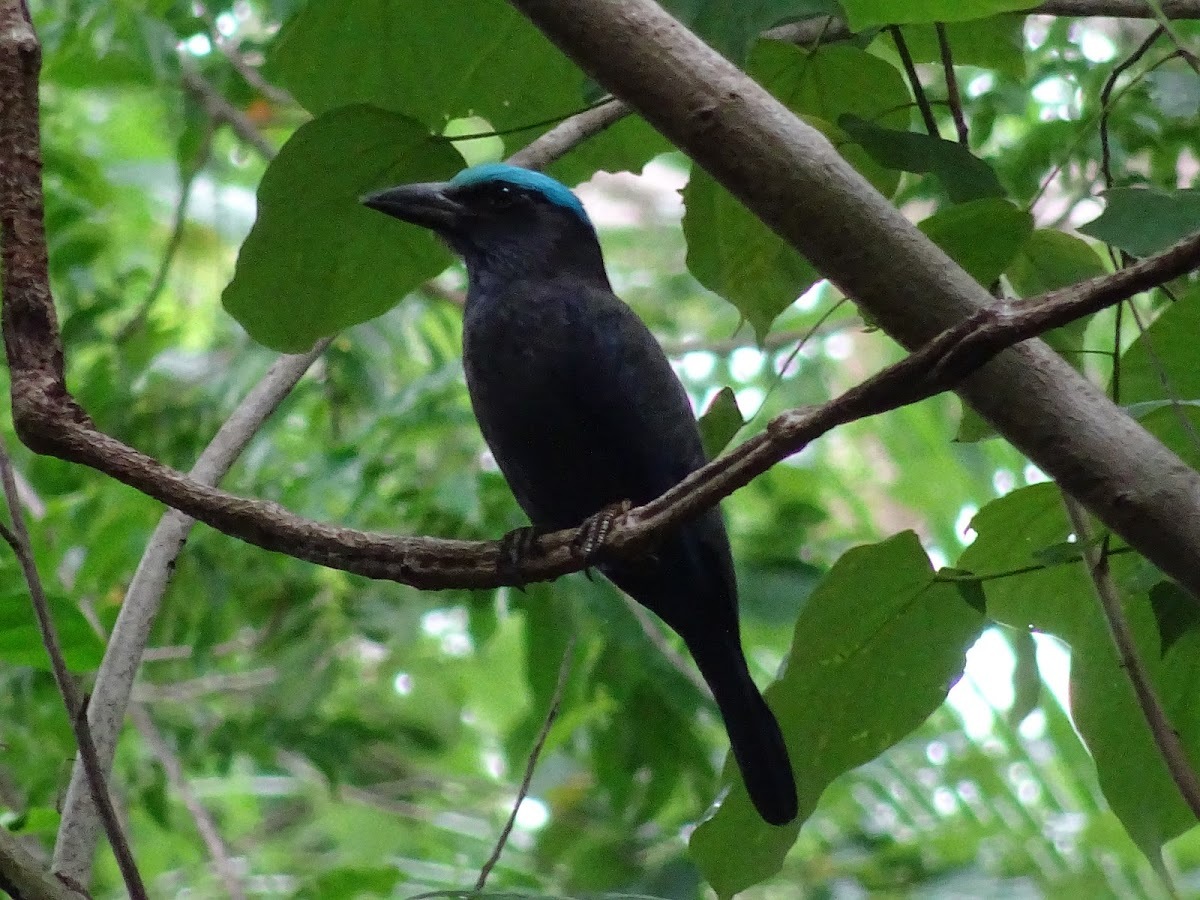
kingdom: Animalia
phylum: Chordata
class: Aves
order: Coraciiformes
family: Coraciidae
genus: Coracias
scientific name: Coracias temminckii
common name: Purple-winged roller
